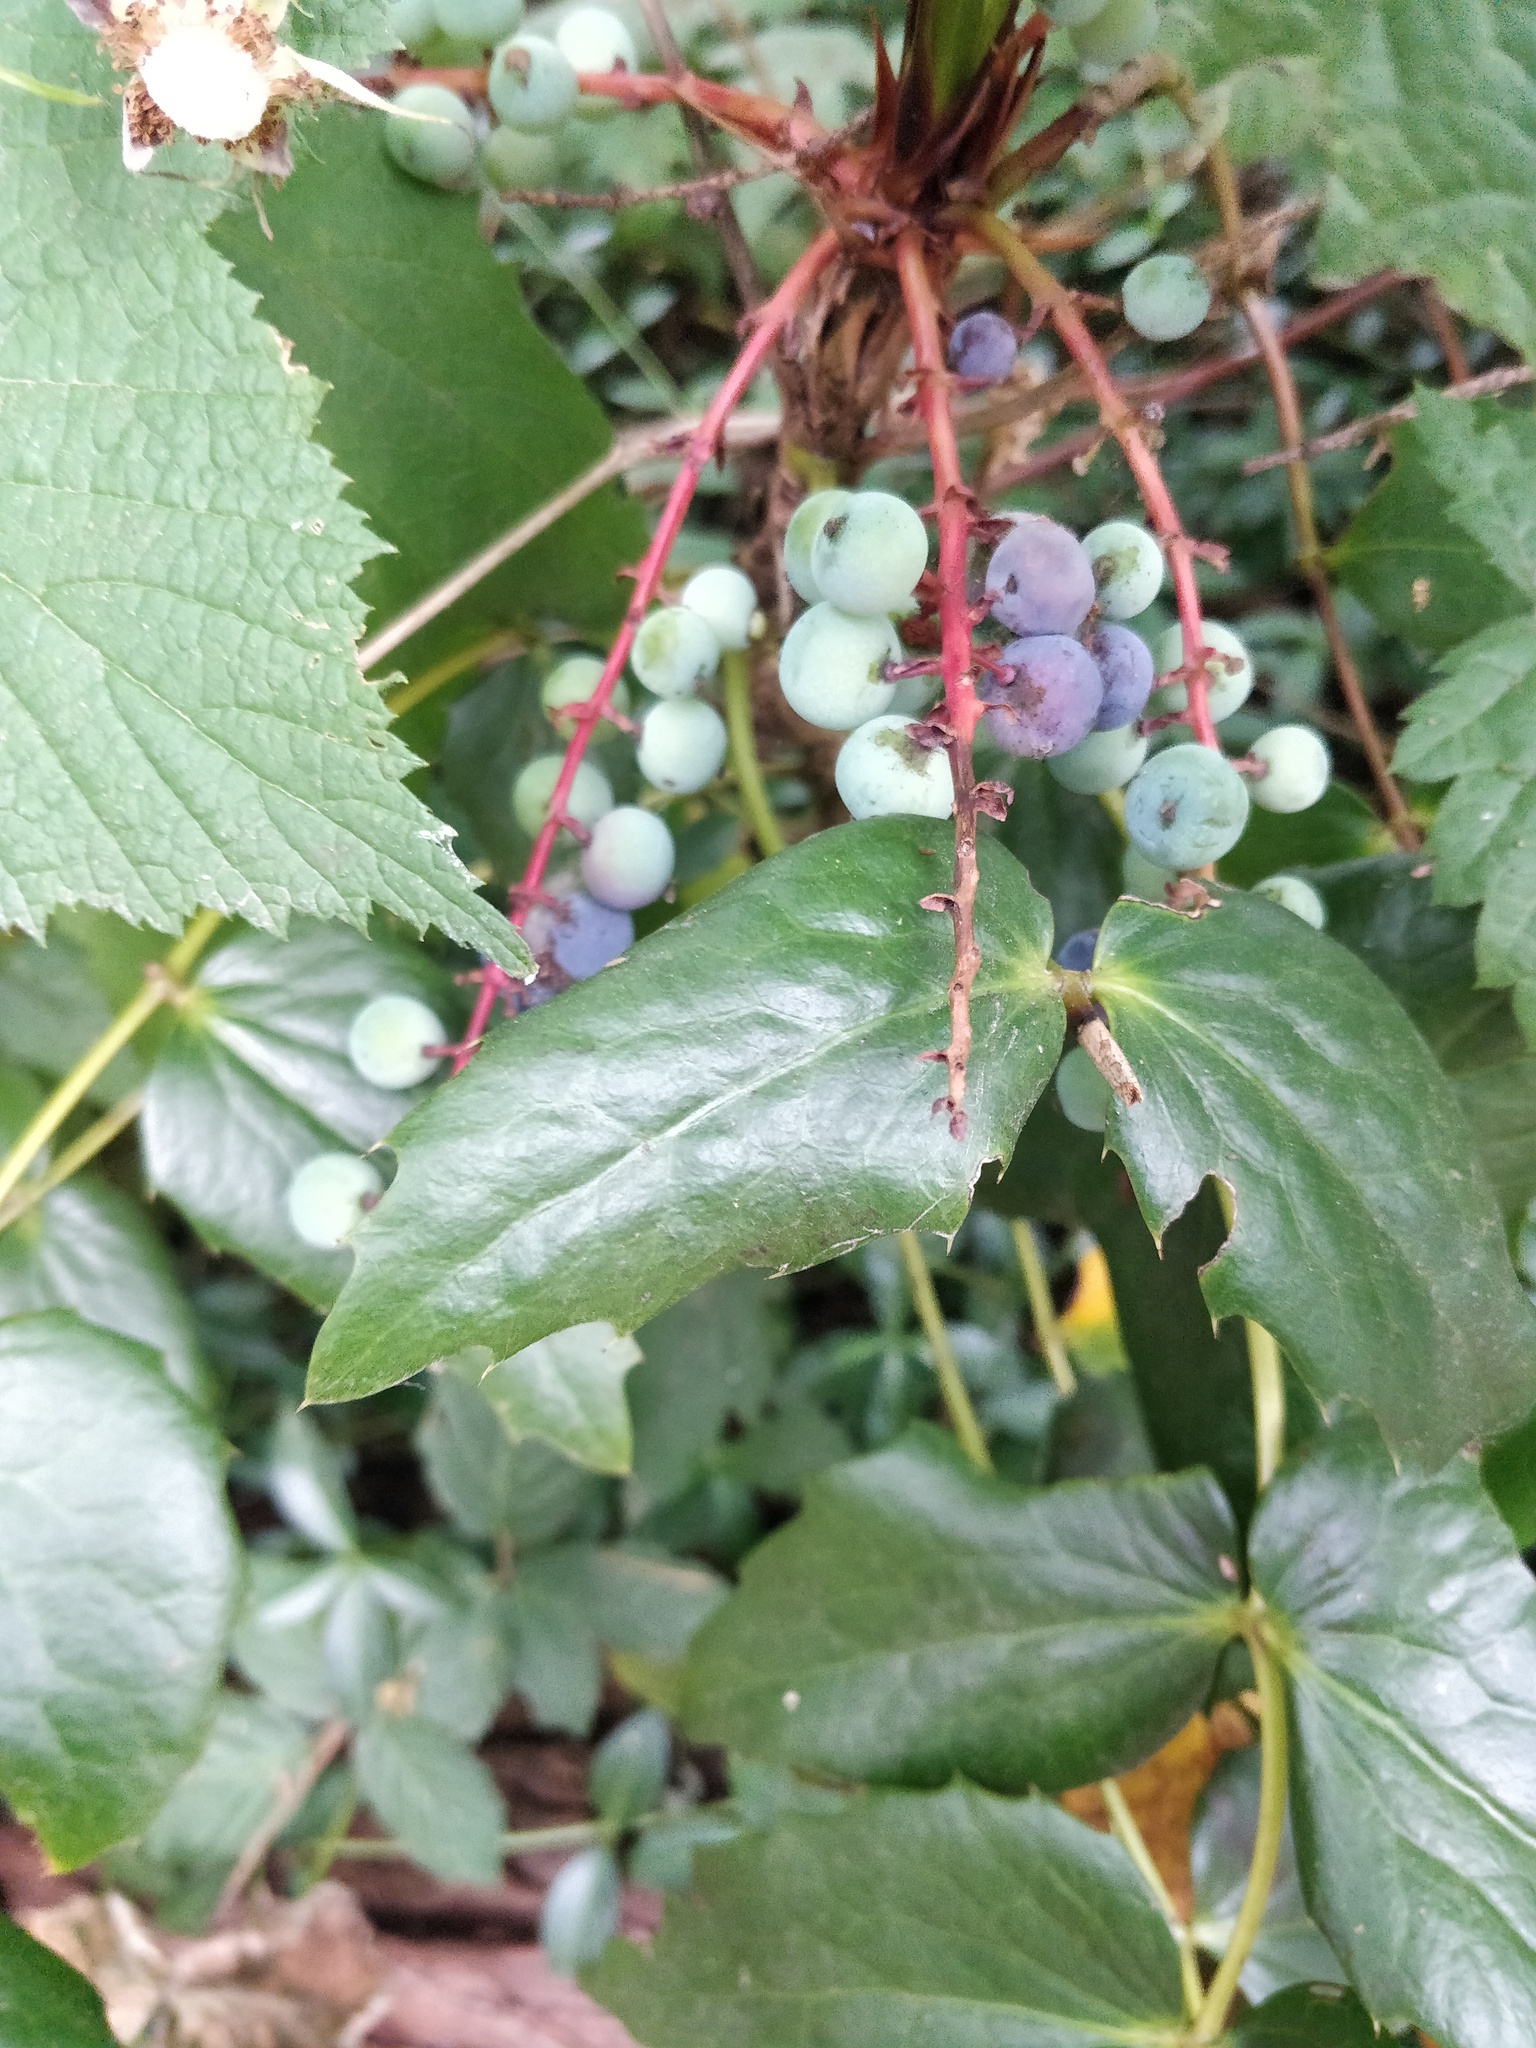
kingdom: Plantae
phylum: Tracheophyta
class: Magnoliopsida
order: Ranunculales
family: Berberidaceae
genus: Mahonia
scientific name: Mahonia nervosa
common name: Cascade oregon-grape
